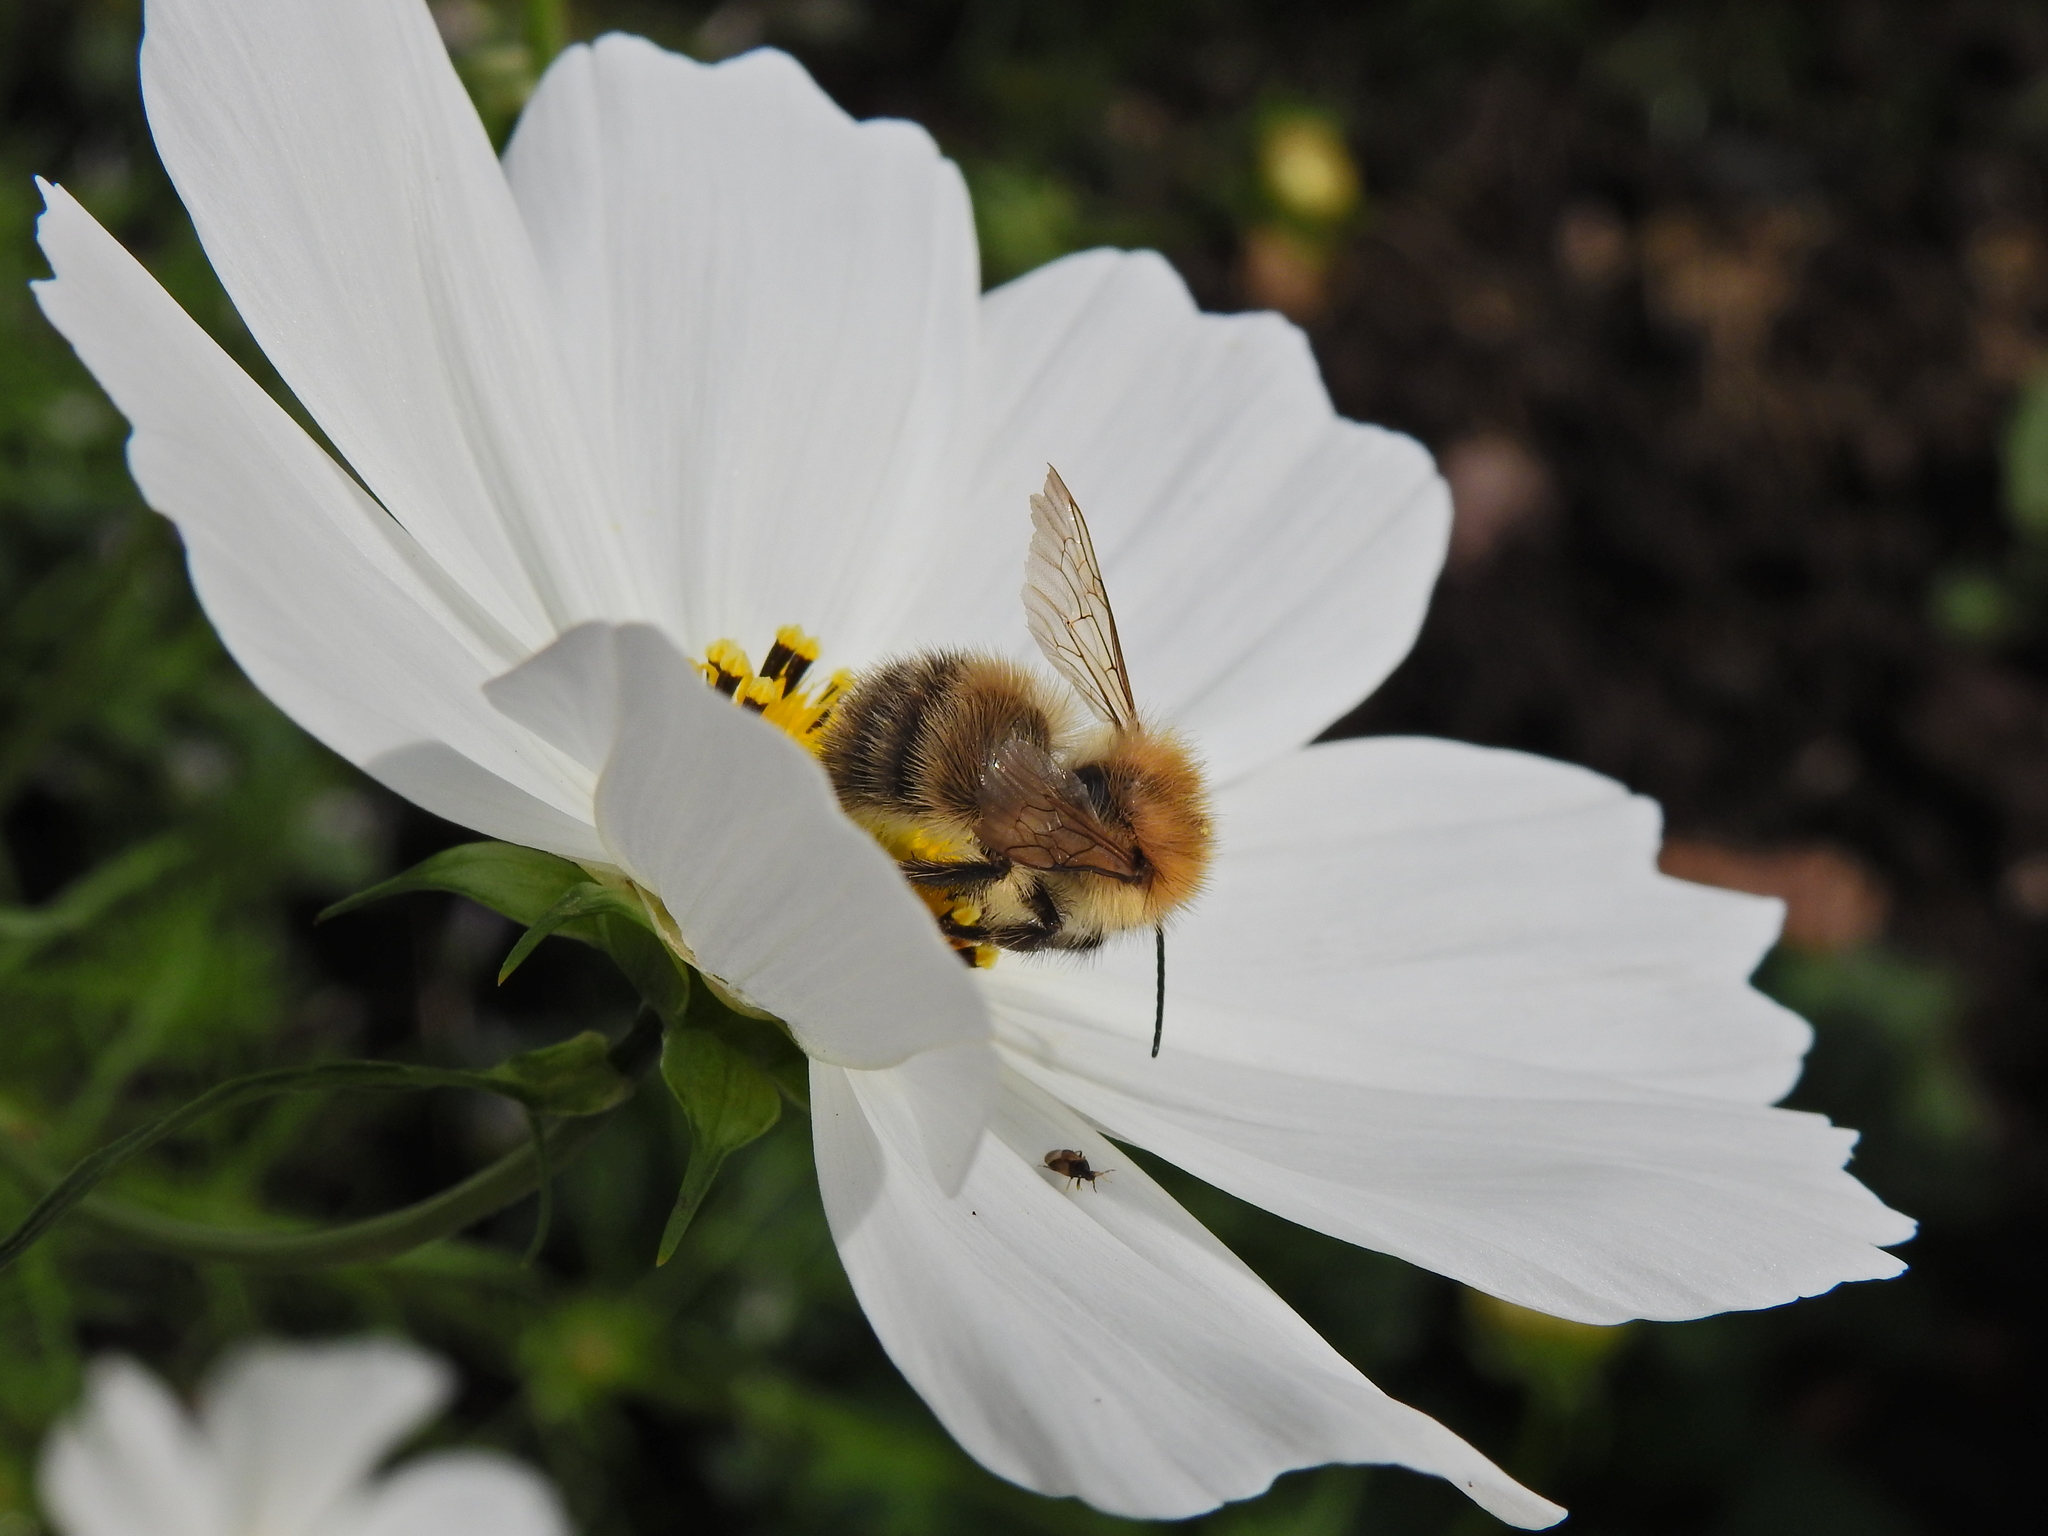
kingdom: Animalia
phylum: Arthropoda
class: Insecta
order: Hymenoptera
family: Apidae
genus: Bombus
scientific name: Bombus pascuorum
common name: Common carder bee
